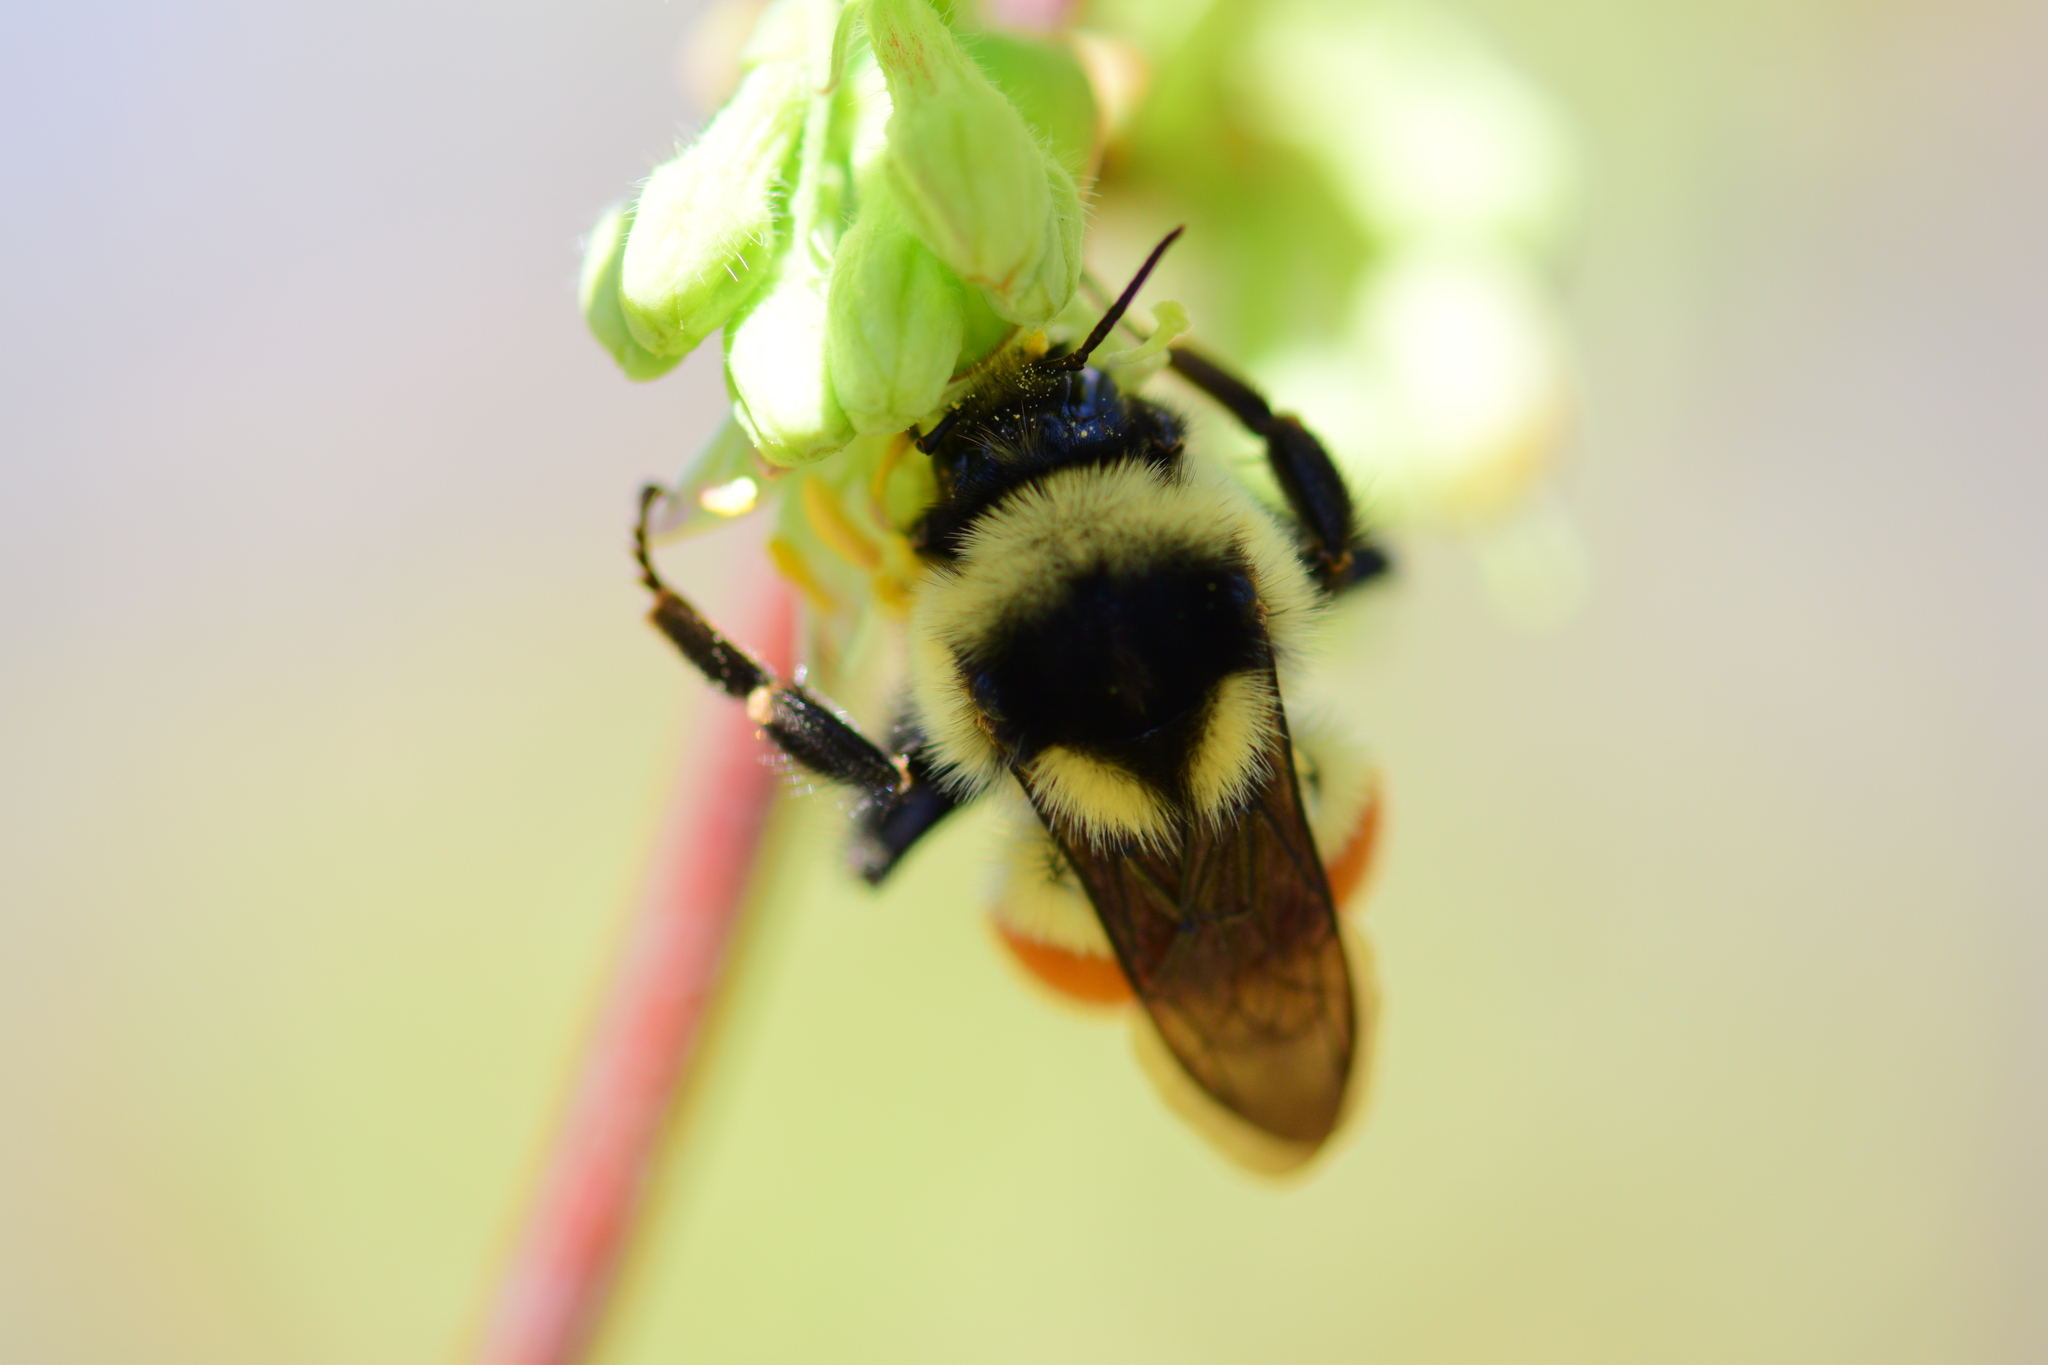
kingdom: Animalia
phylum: Arthropoda
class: Insecta
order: Hymenoptera
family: Apidae
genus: Bombus
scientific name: Bombus ternarius
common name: Tri-colored bumble bee
